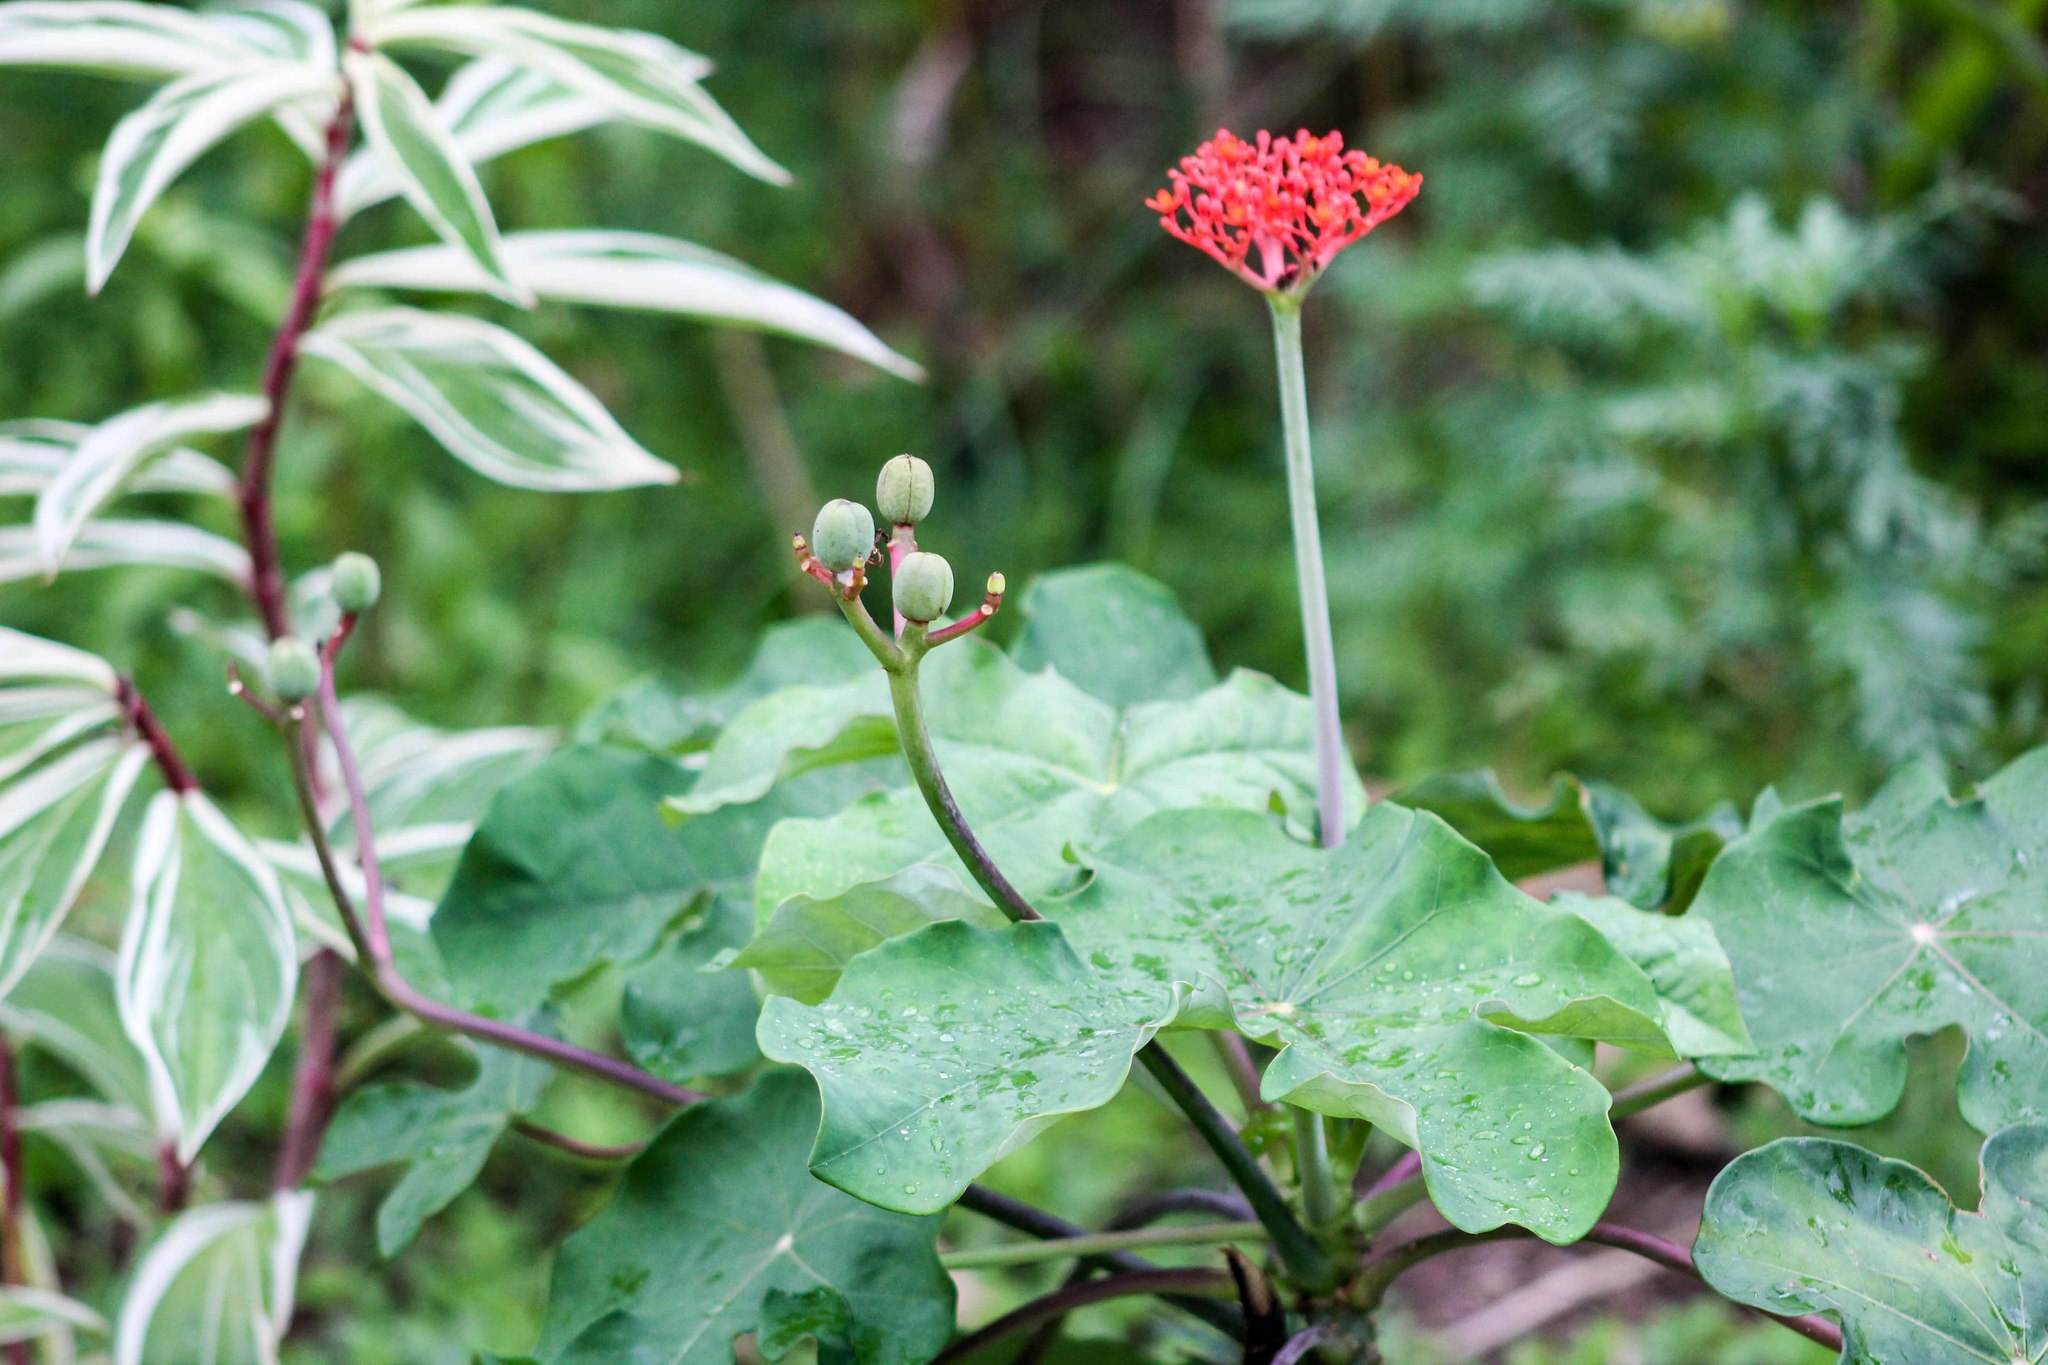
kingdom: Plantae
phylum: Tracheophyta
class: Magnoliopsida
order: Malpighiales
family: Euphorbiaceae
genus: Jatropha
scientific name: Jatropha podagrica
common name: Gout stalk
